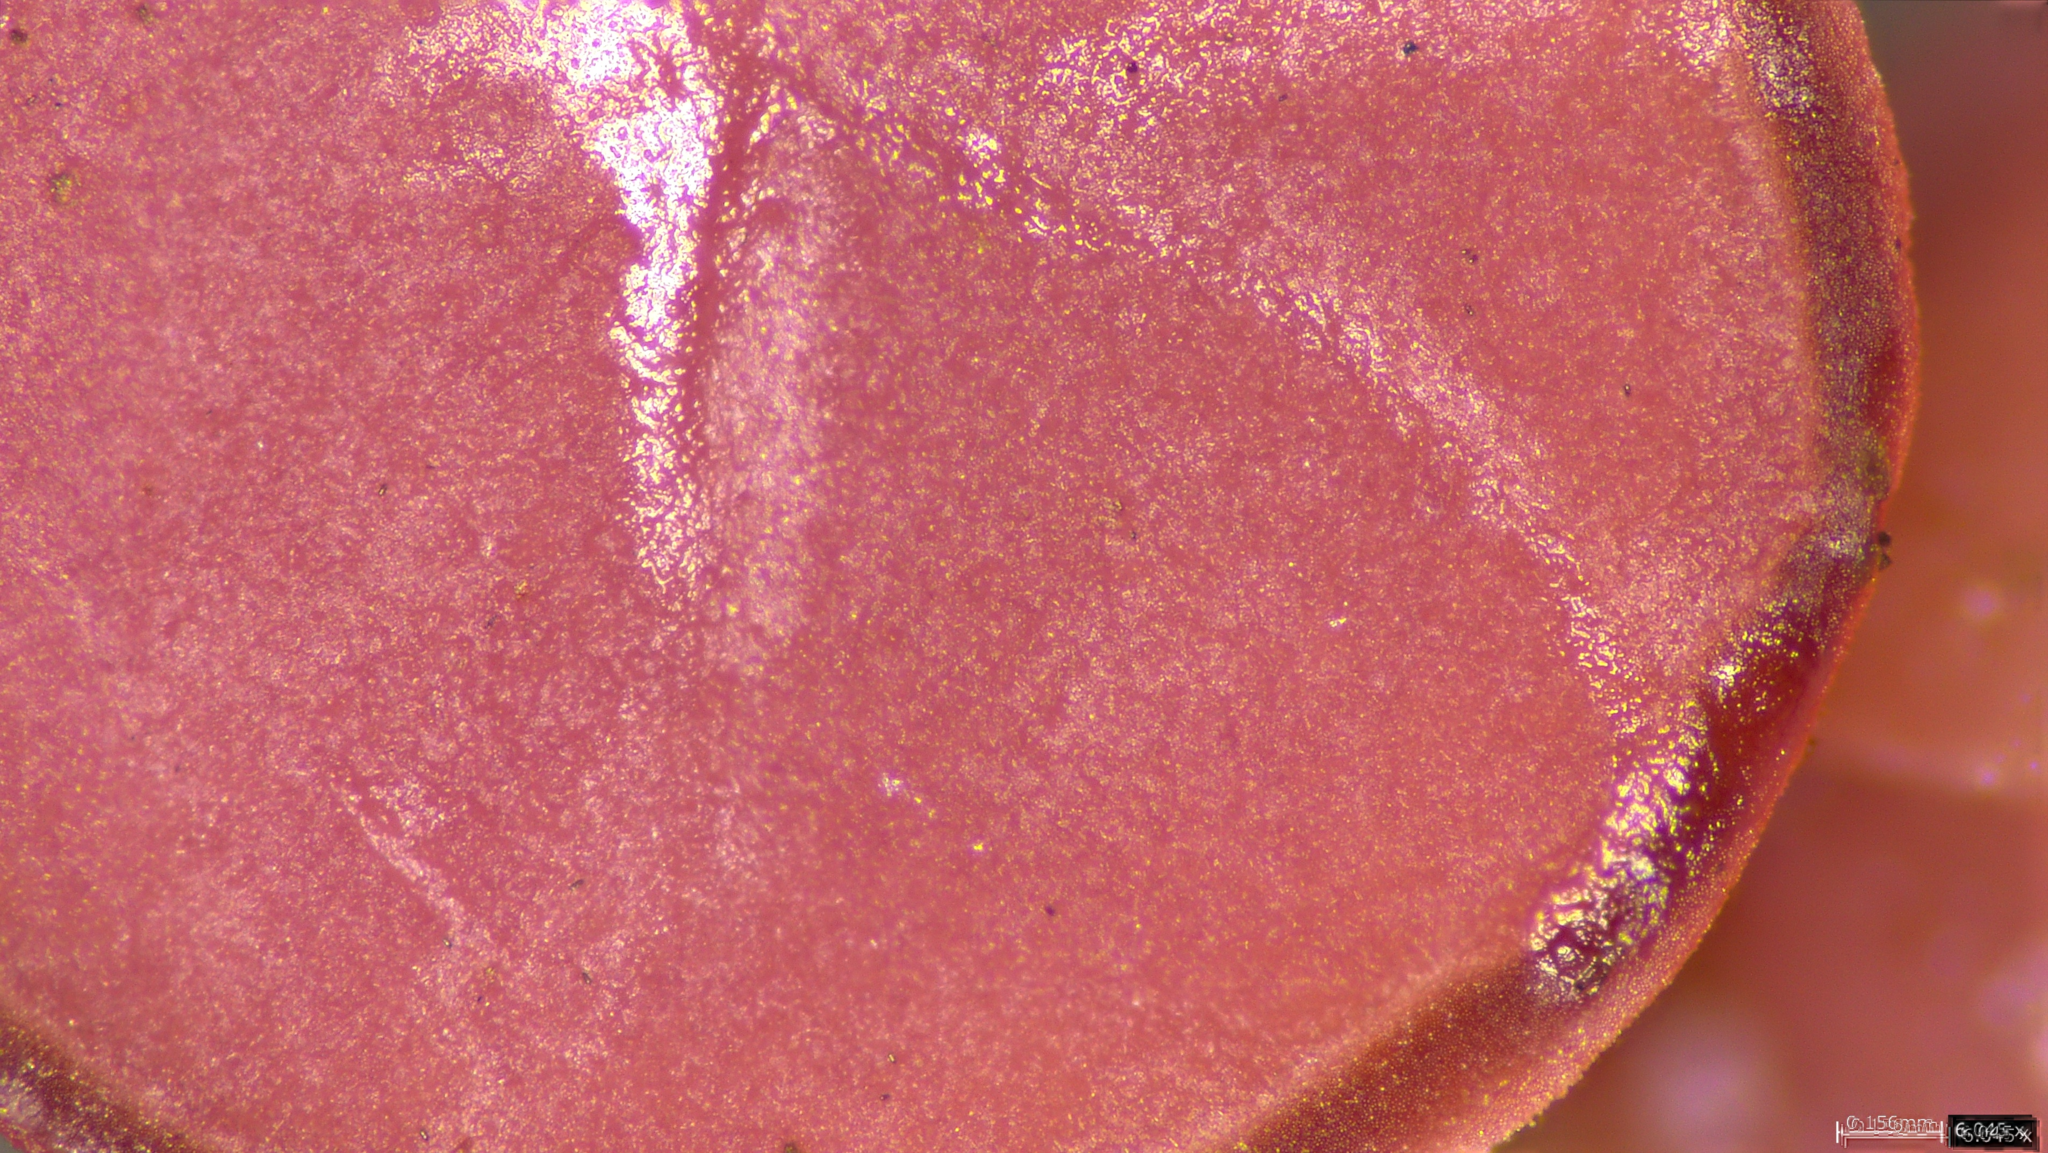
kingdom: Fungi
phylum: Ascomycota
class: Leotiomycetes
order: Helotiales
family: Gelatinodiscaceae
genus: Ascocoryne
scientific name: Ascocoryne cylichnium
